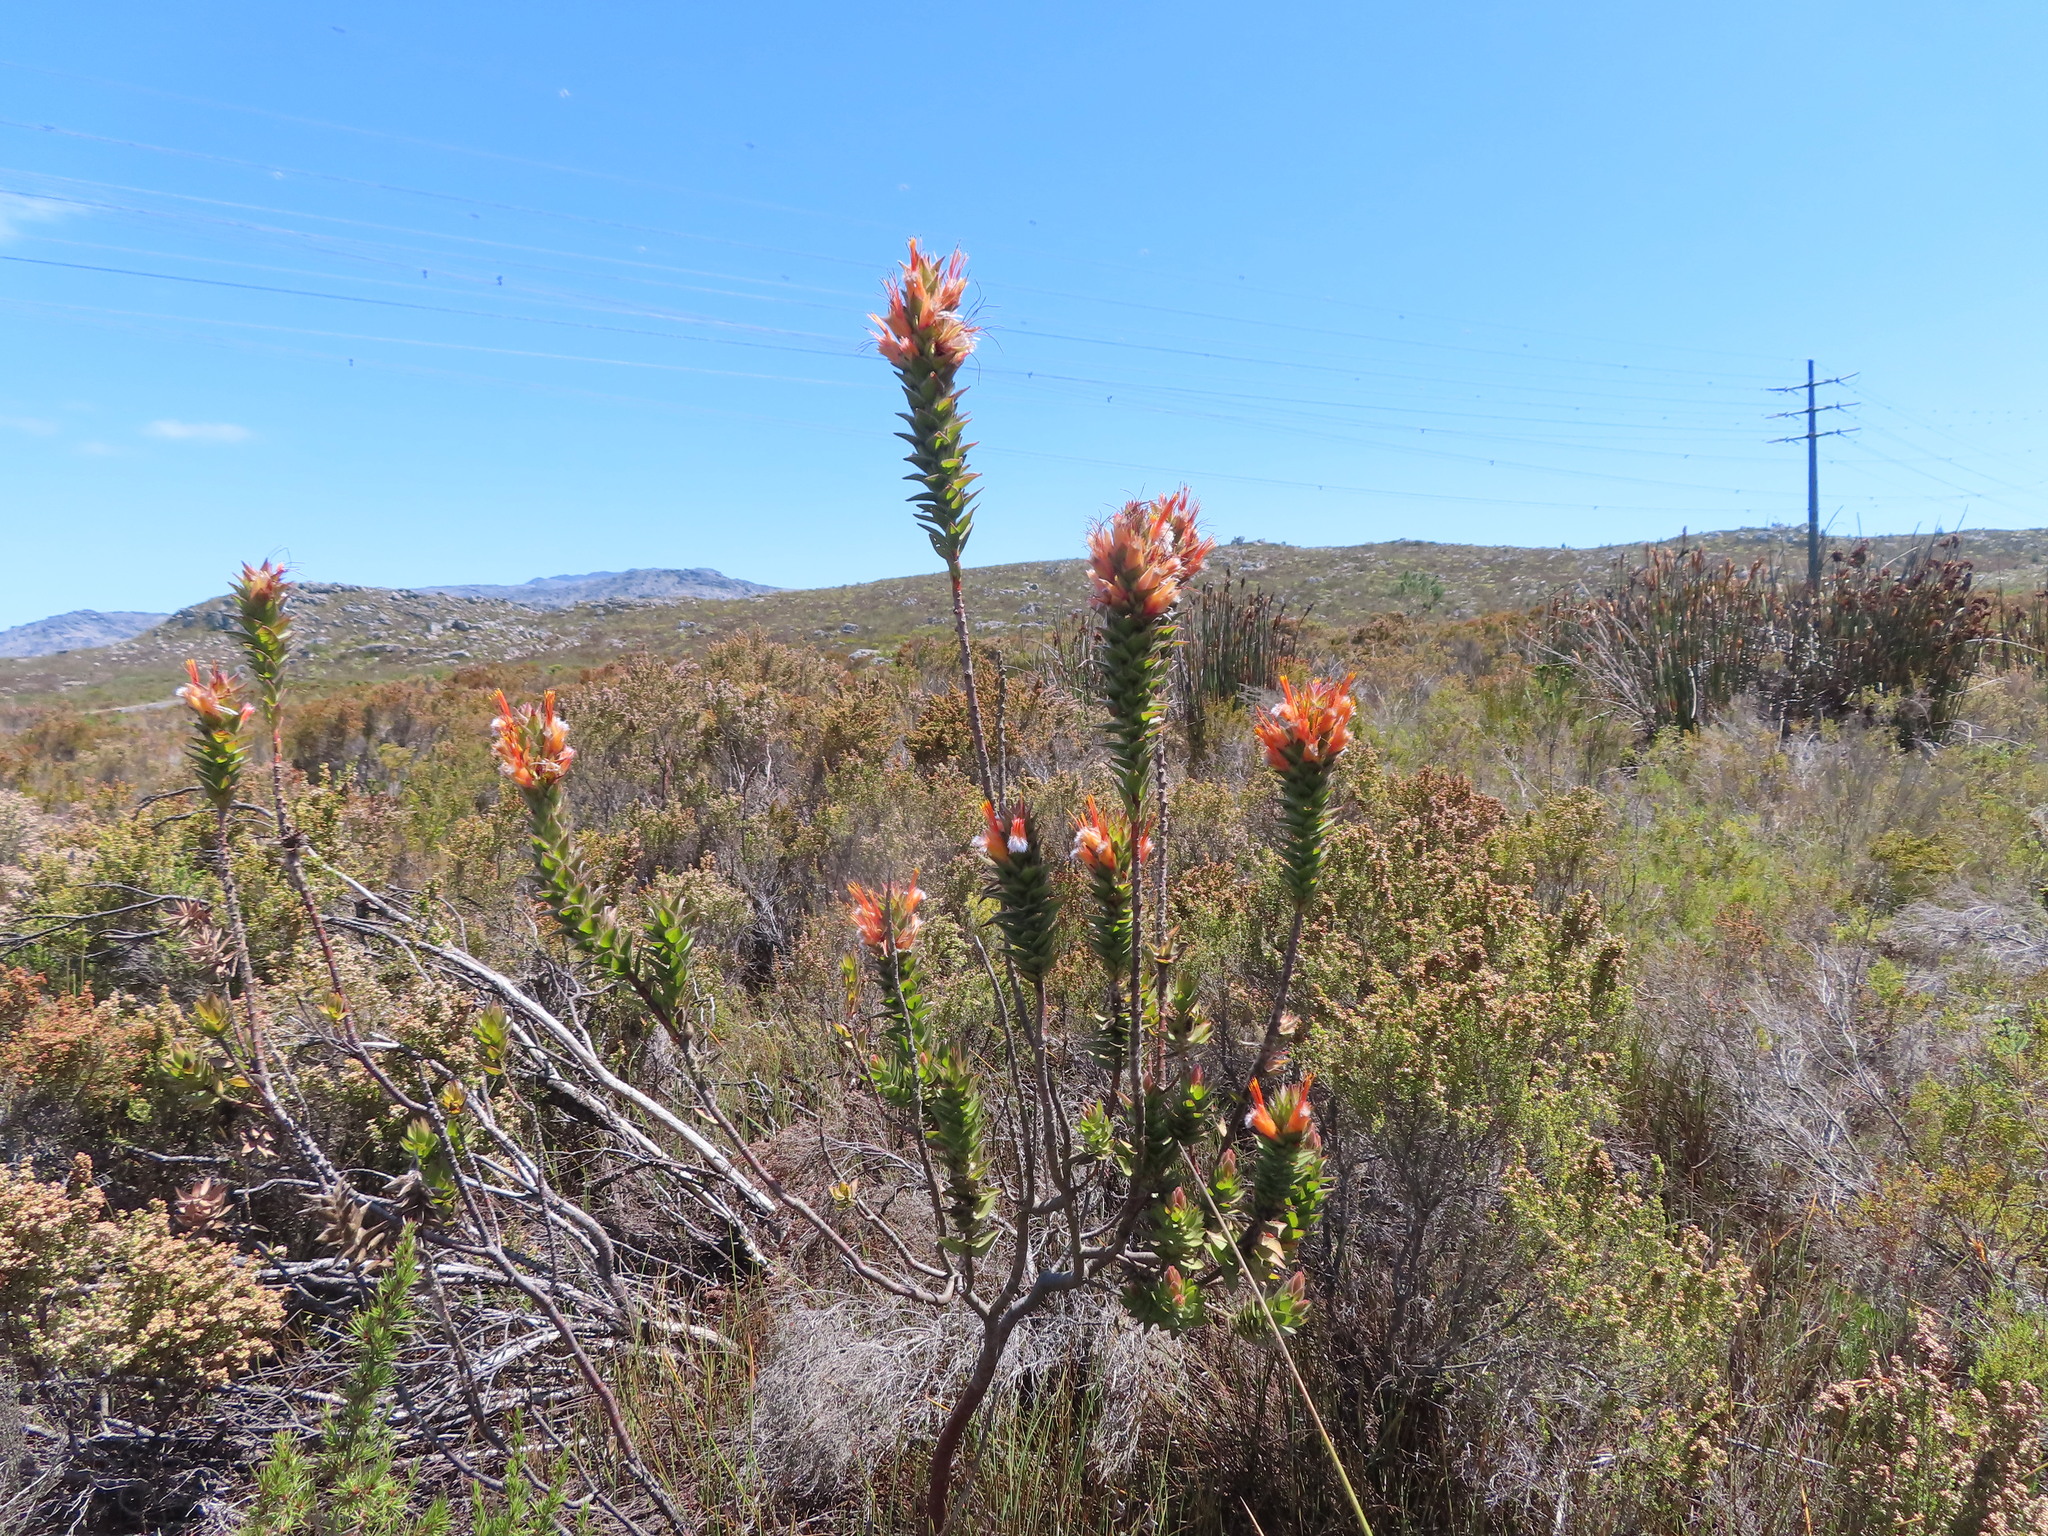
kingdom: Plantae
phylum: Tracheophyta
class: Magnoliopsida
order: Proteales
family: Proteaceae
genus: Mimetes
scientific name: Mimetes capitulatus
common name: Conical pagoda
